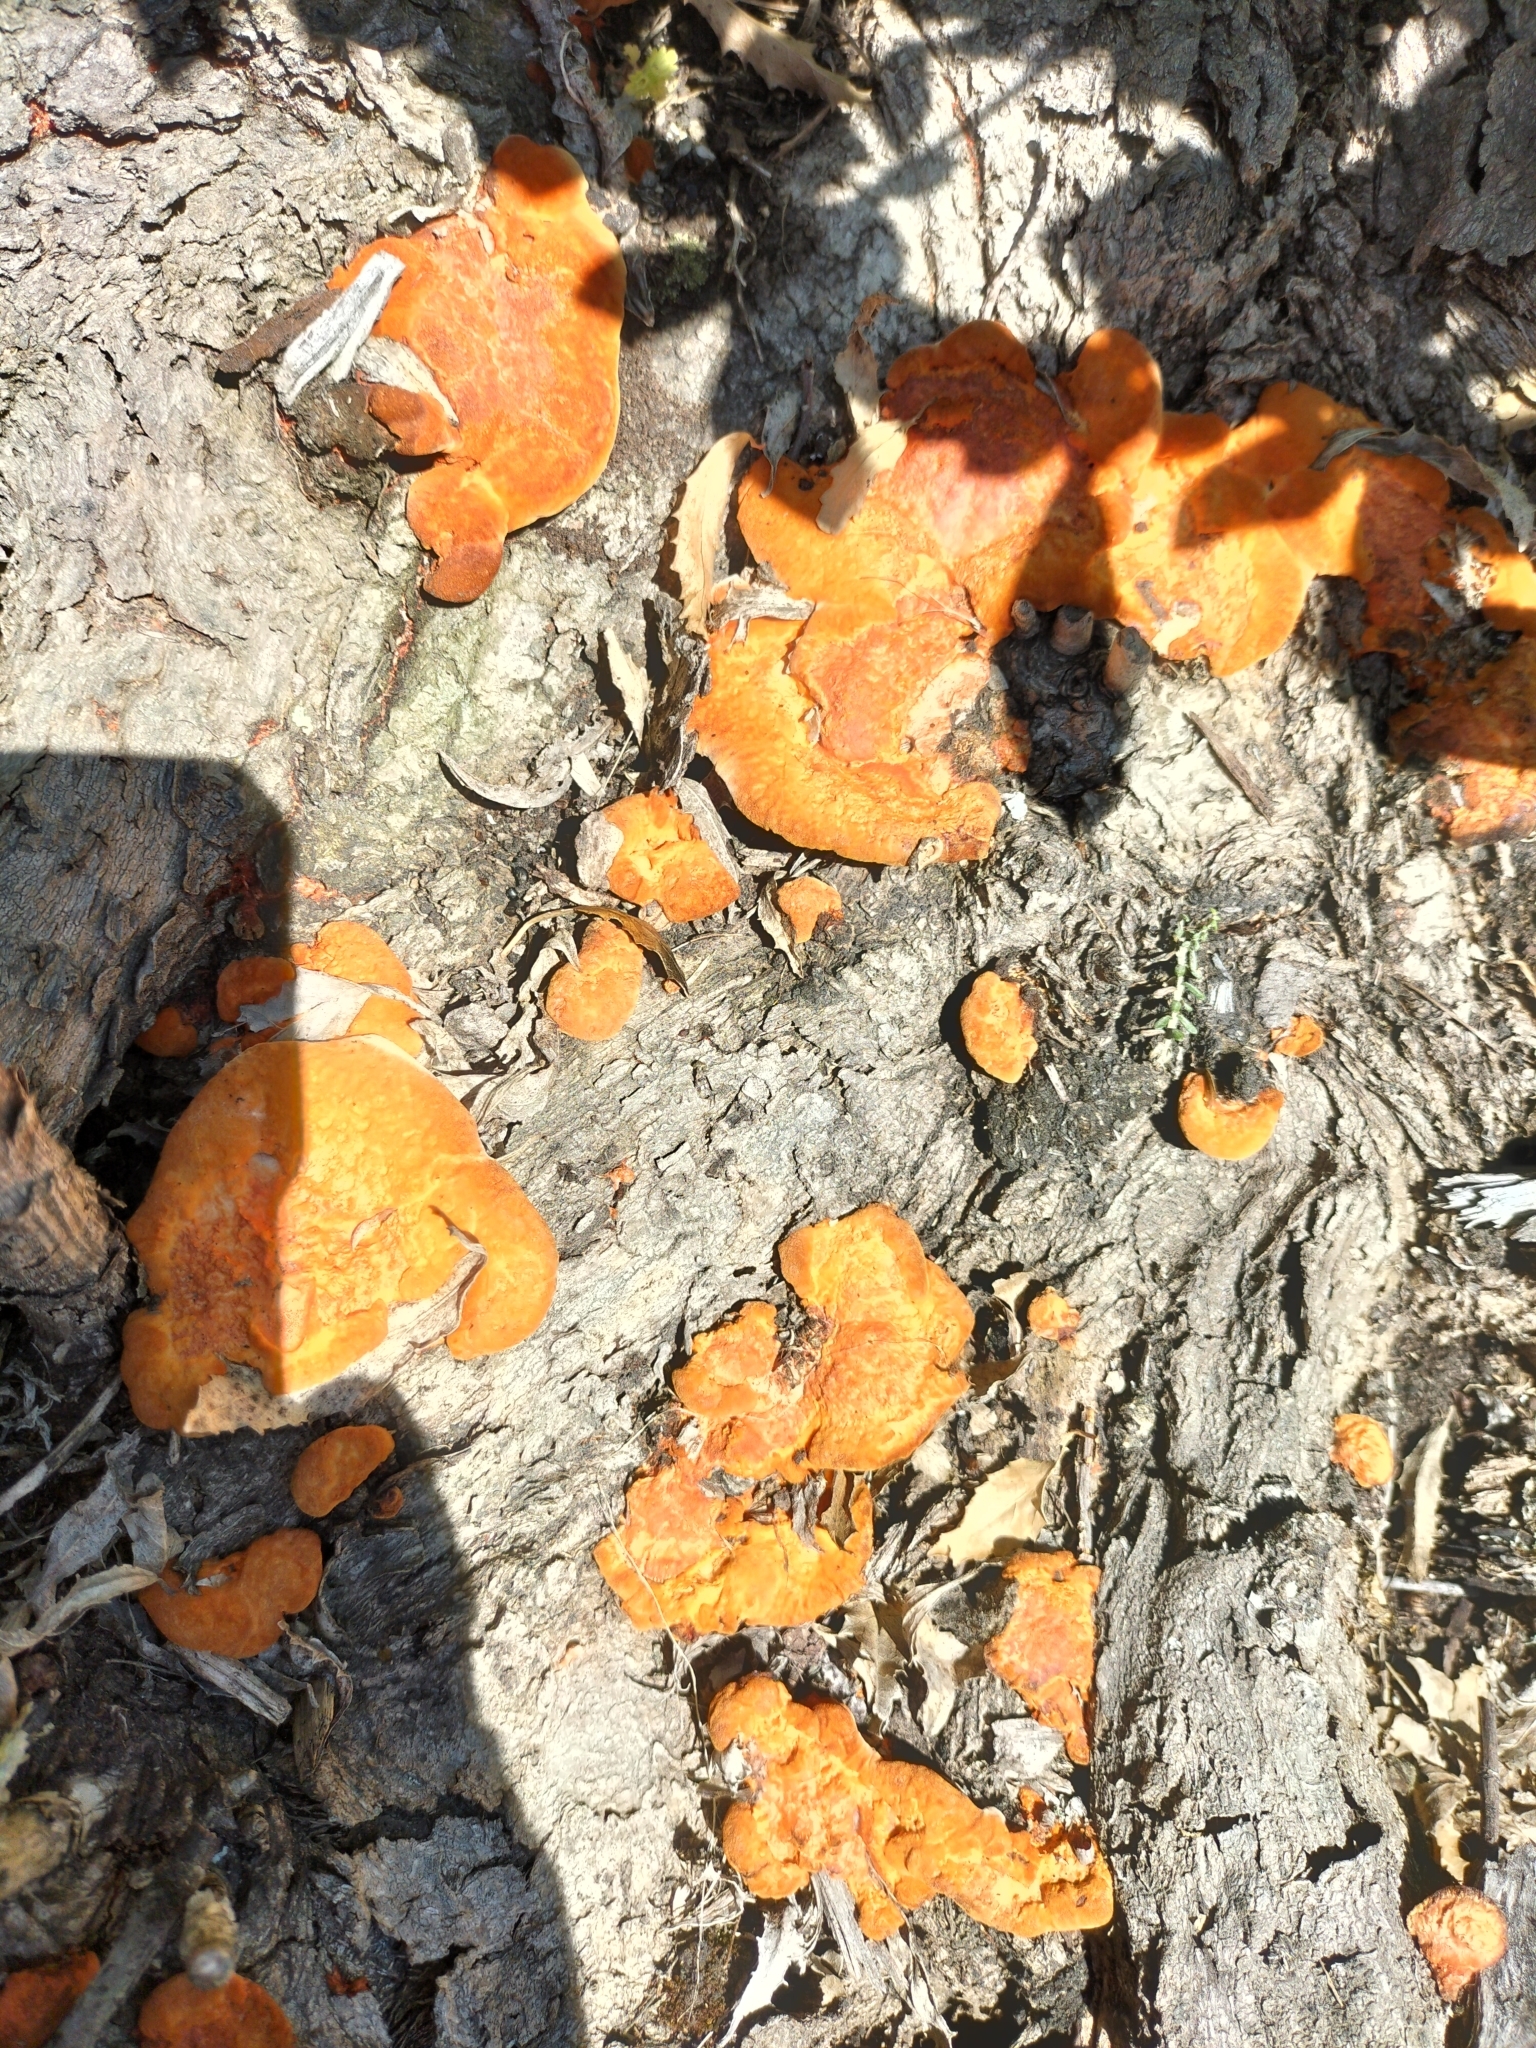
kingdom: Fungi
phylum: Basidiomycota
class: Agaricomycetes
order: Polyporales
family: Polyporaceae
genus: Trametes
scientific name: Trametes coccinea
